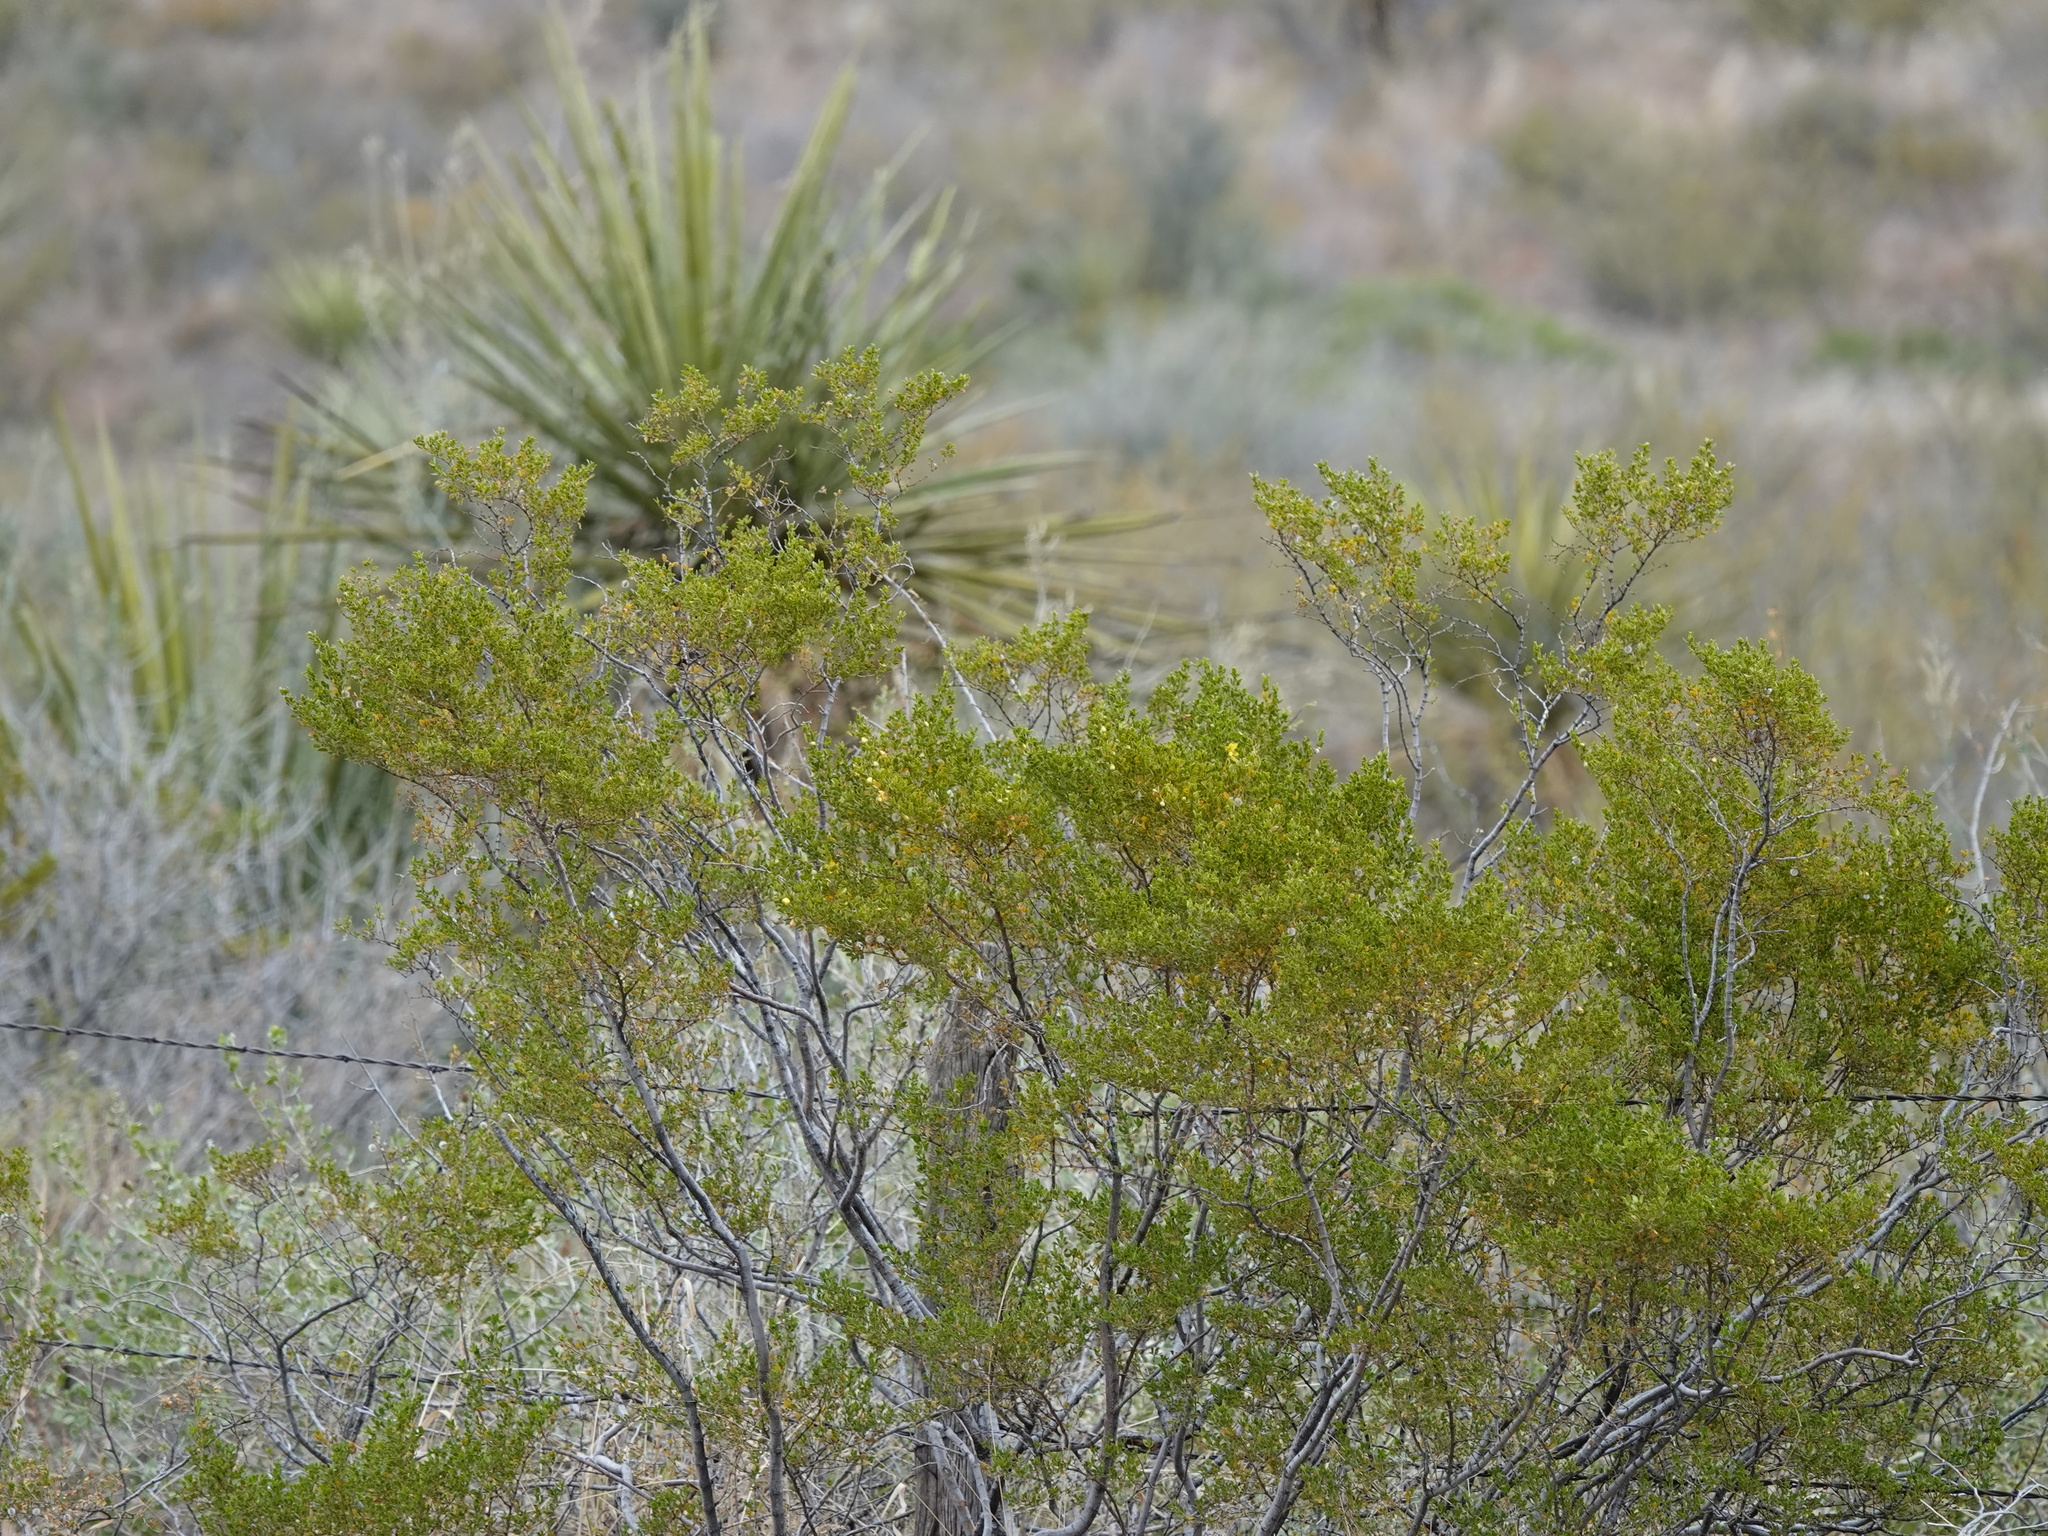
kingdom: Plantae
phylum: Tracheophyta
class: Magnoliopsida
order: Zygophyllales
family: Zygophyllaceae
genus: Larrea
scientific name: Larrea tridentata
